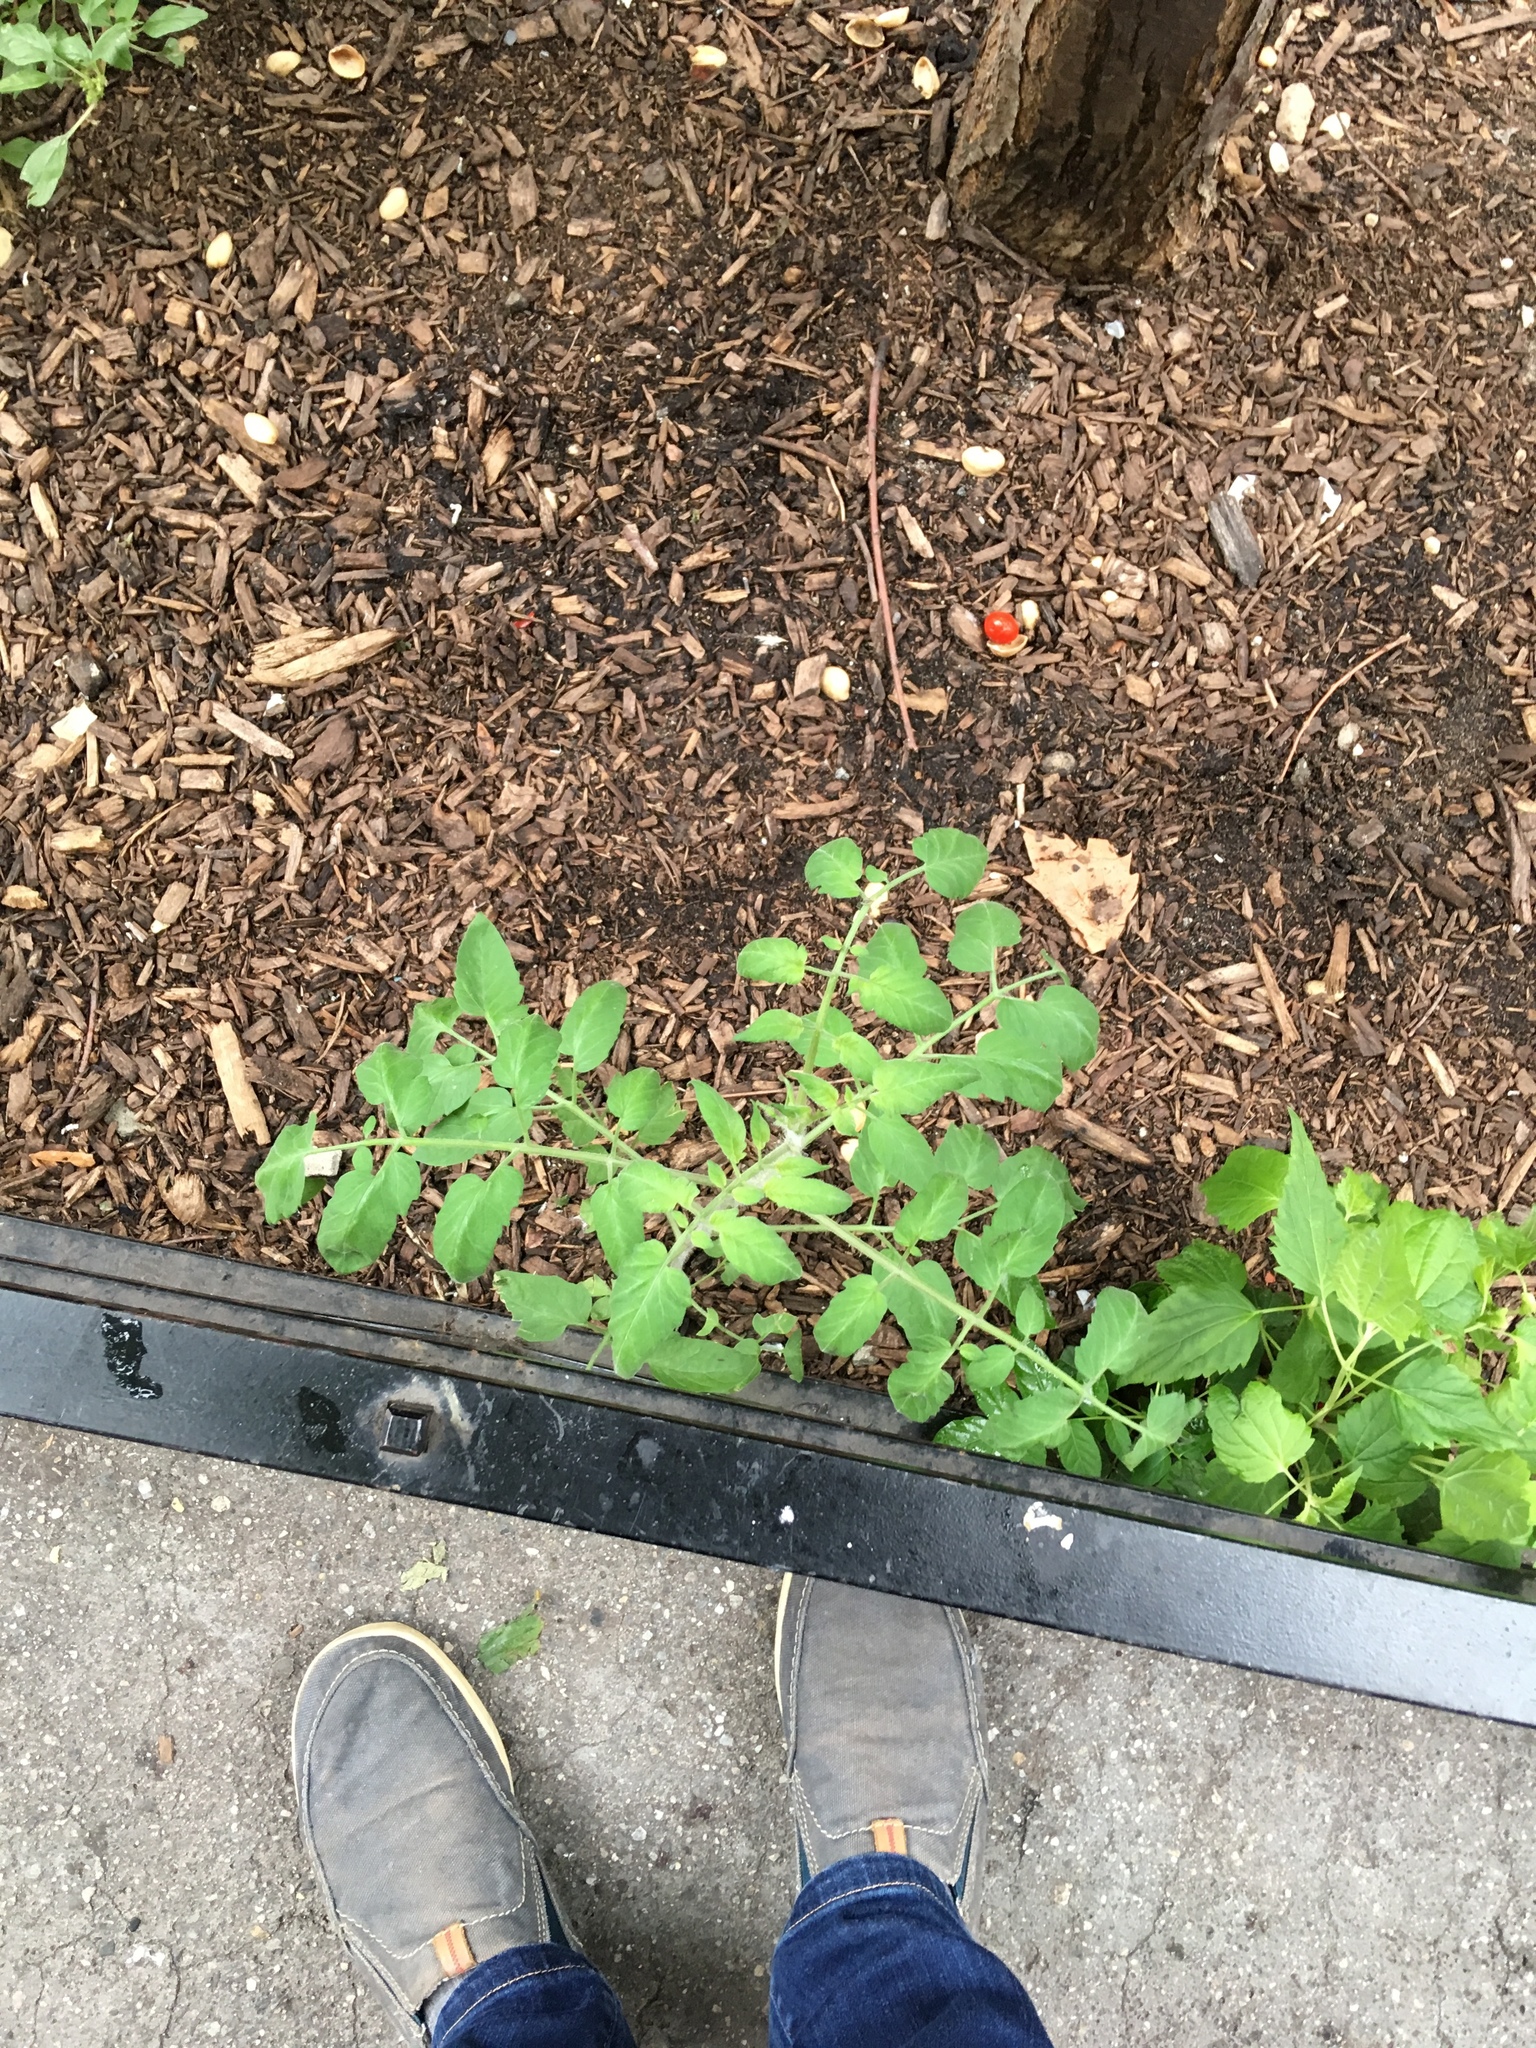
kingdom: Plantae
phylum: Tracheophyta
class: Magnoliopsida
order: Solanales
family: Solanaceae
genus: Solanum
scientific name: Solanum lycopersicum
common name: Garden tomato
